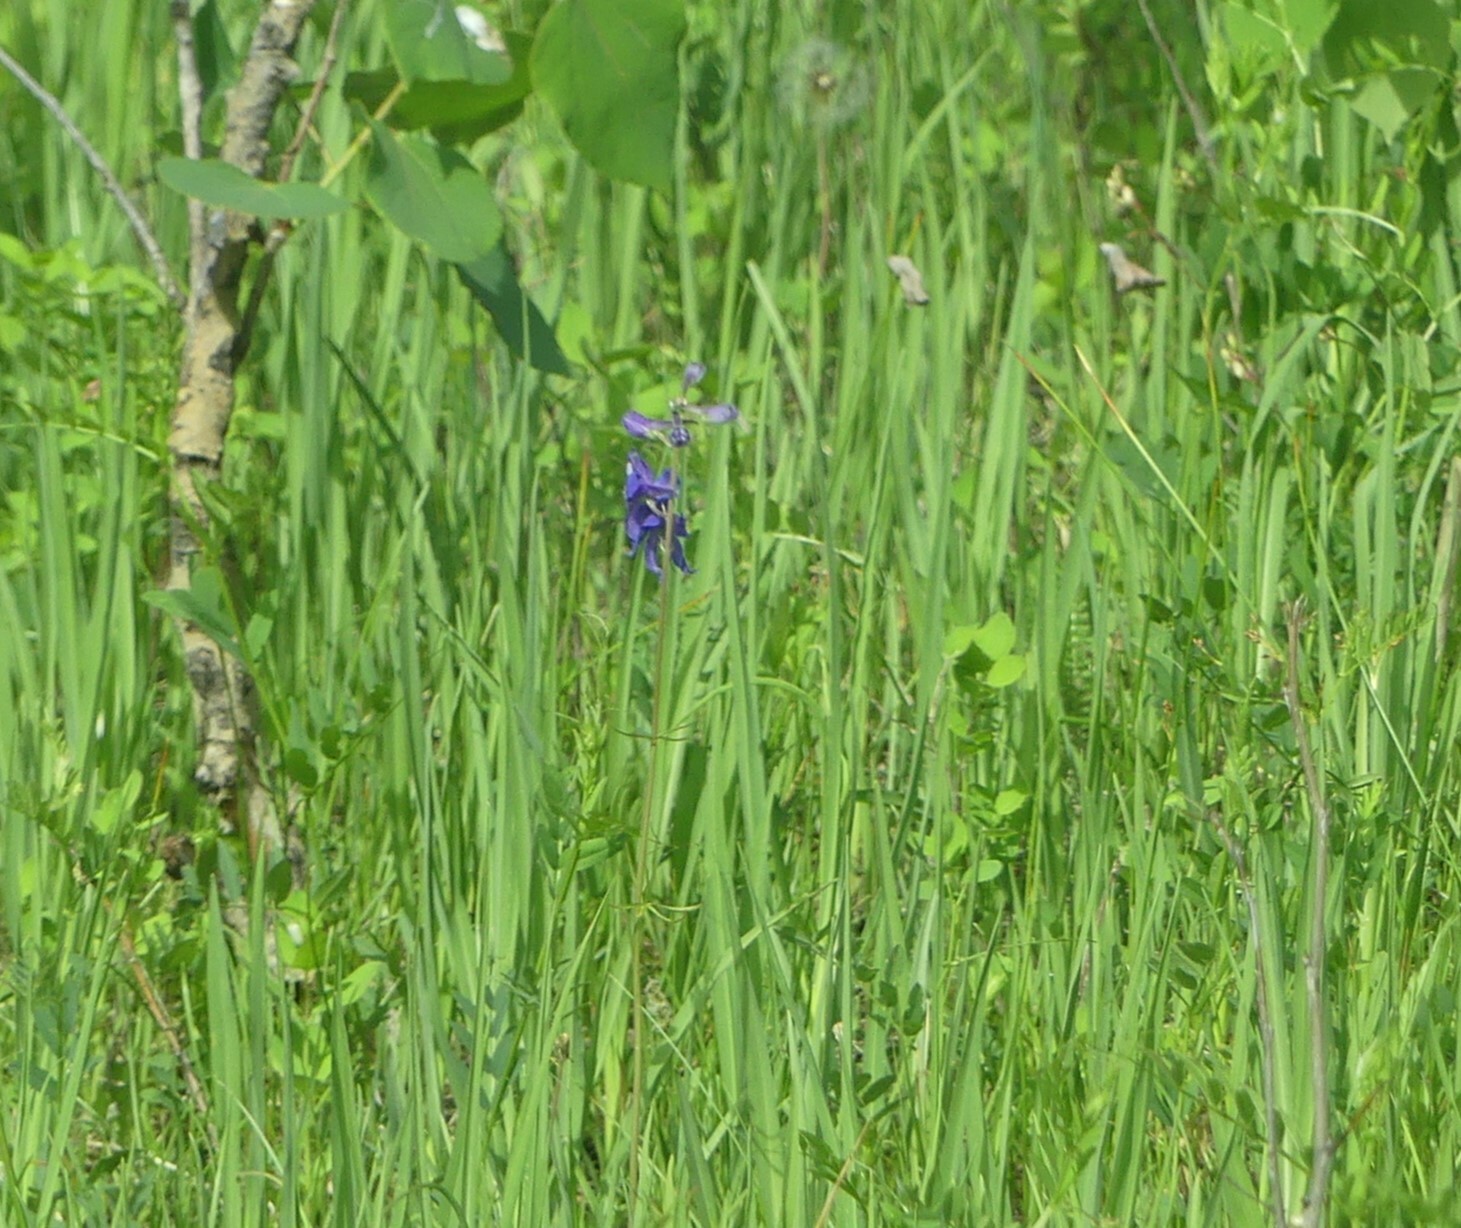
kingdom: Plantae
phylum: Tracheophyta
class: Magnoliopsida
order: Ranunculales
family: Ranunculaceae
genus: Delphinium
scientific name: Delphinium nuttallianum
